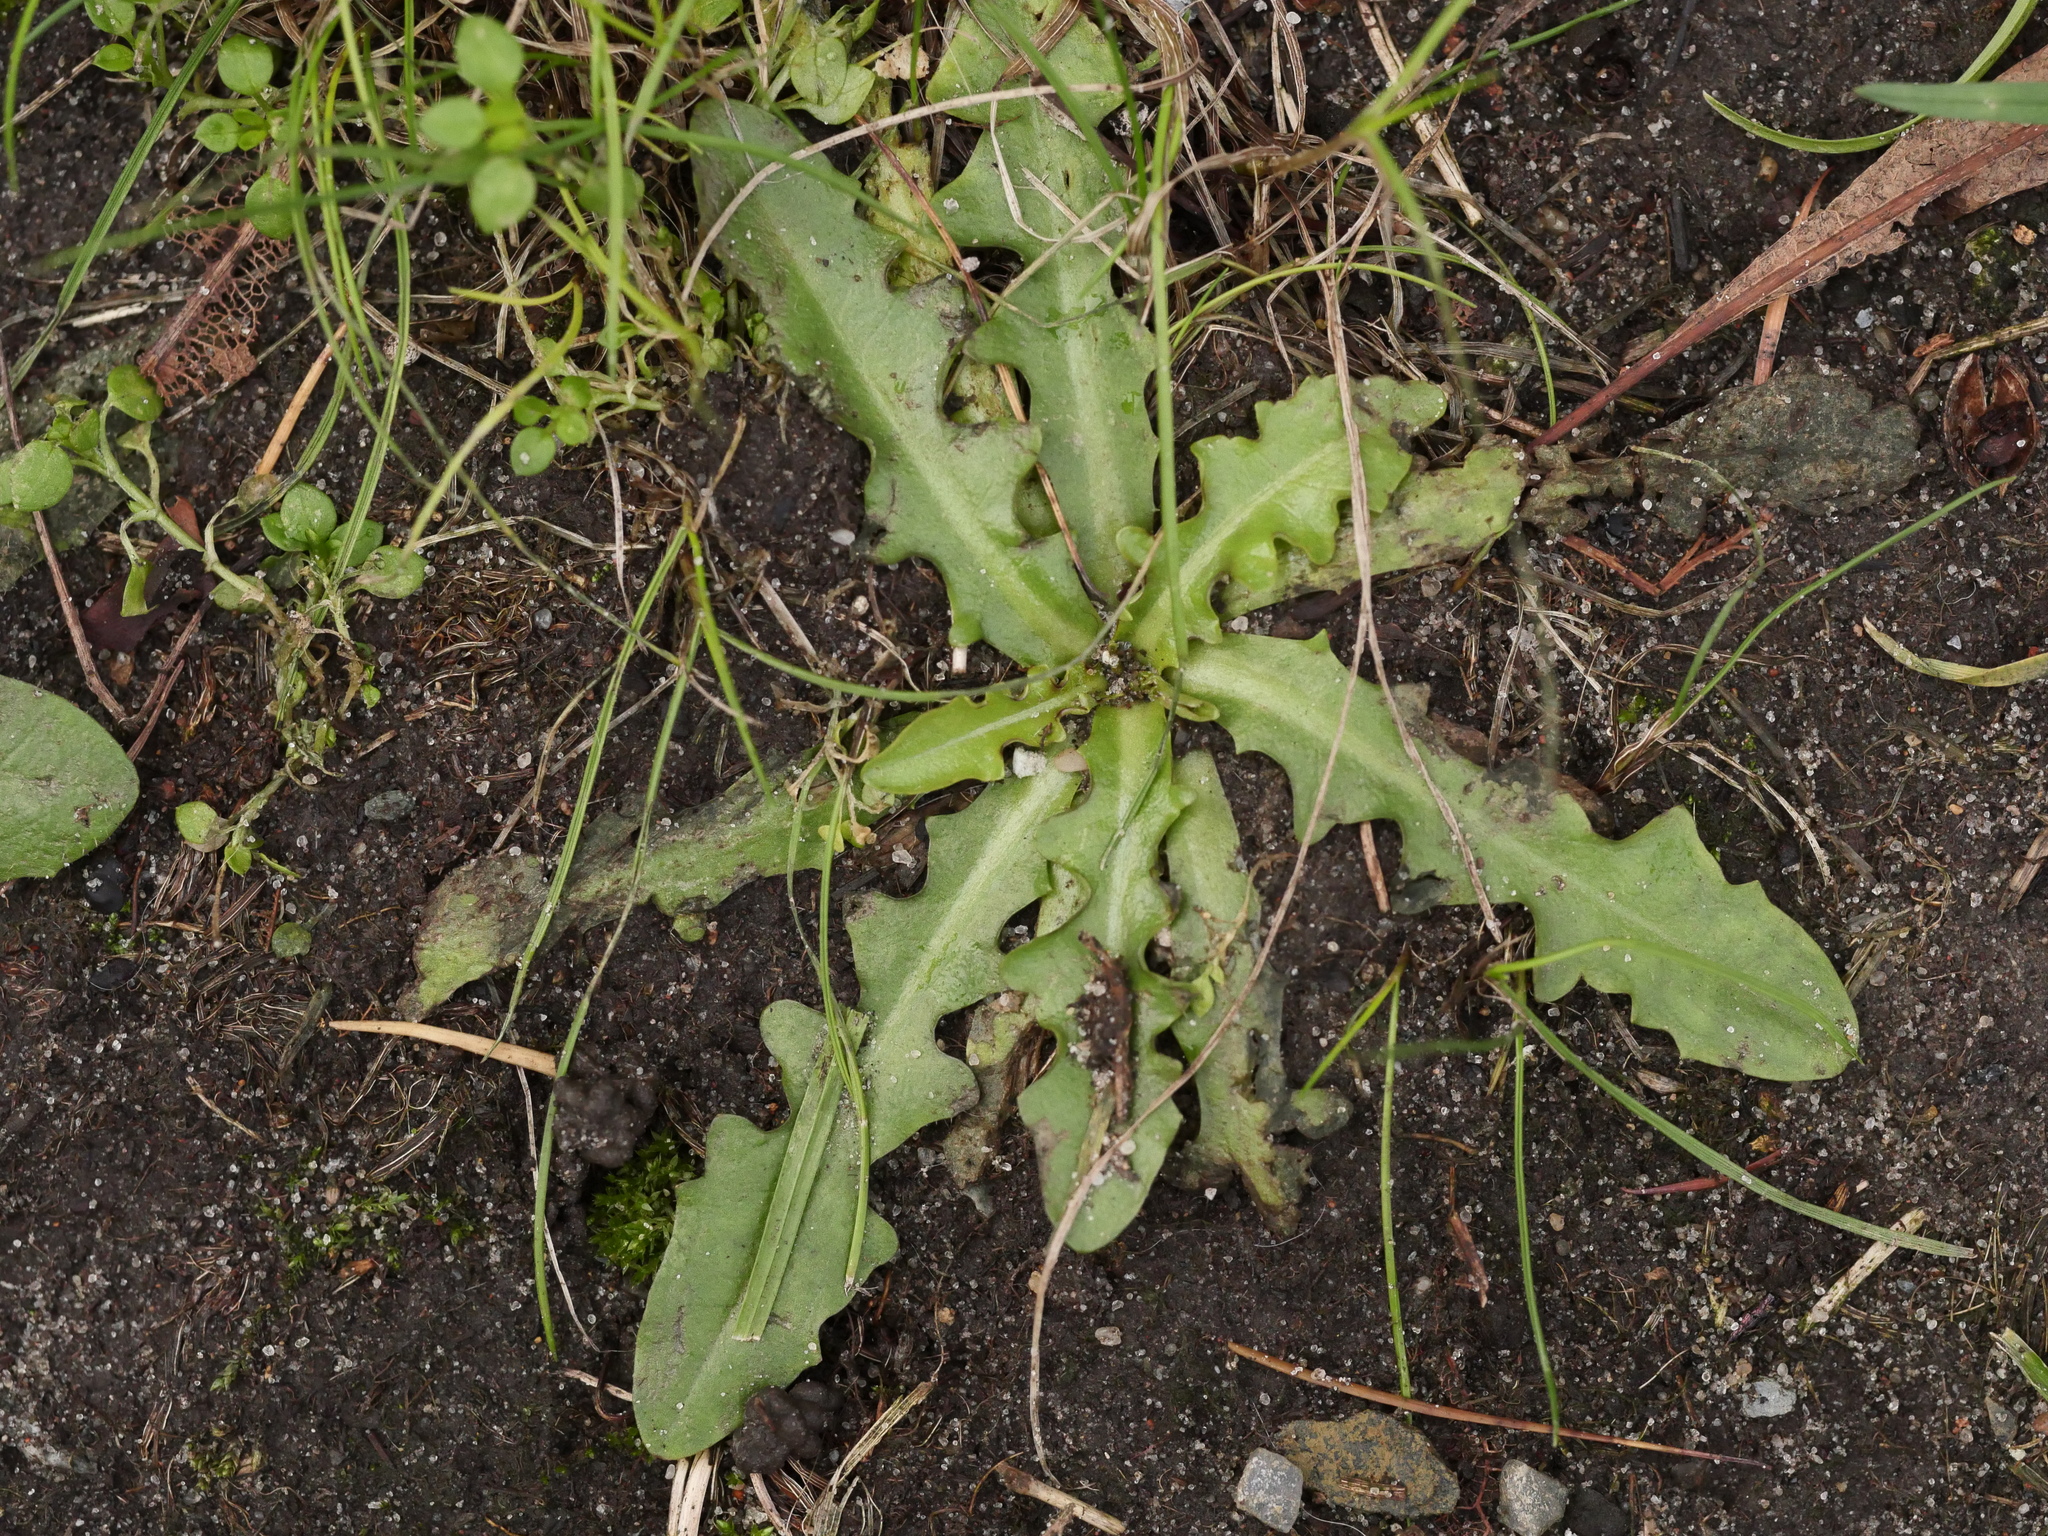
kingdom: Plantae
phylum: Tracheophyta
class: Magnoliopsida
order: Asterales
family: Asteraceae
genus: Hypochaeris
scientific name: Hypochaeris radicata
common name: Flatweed
